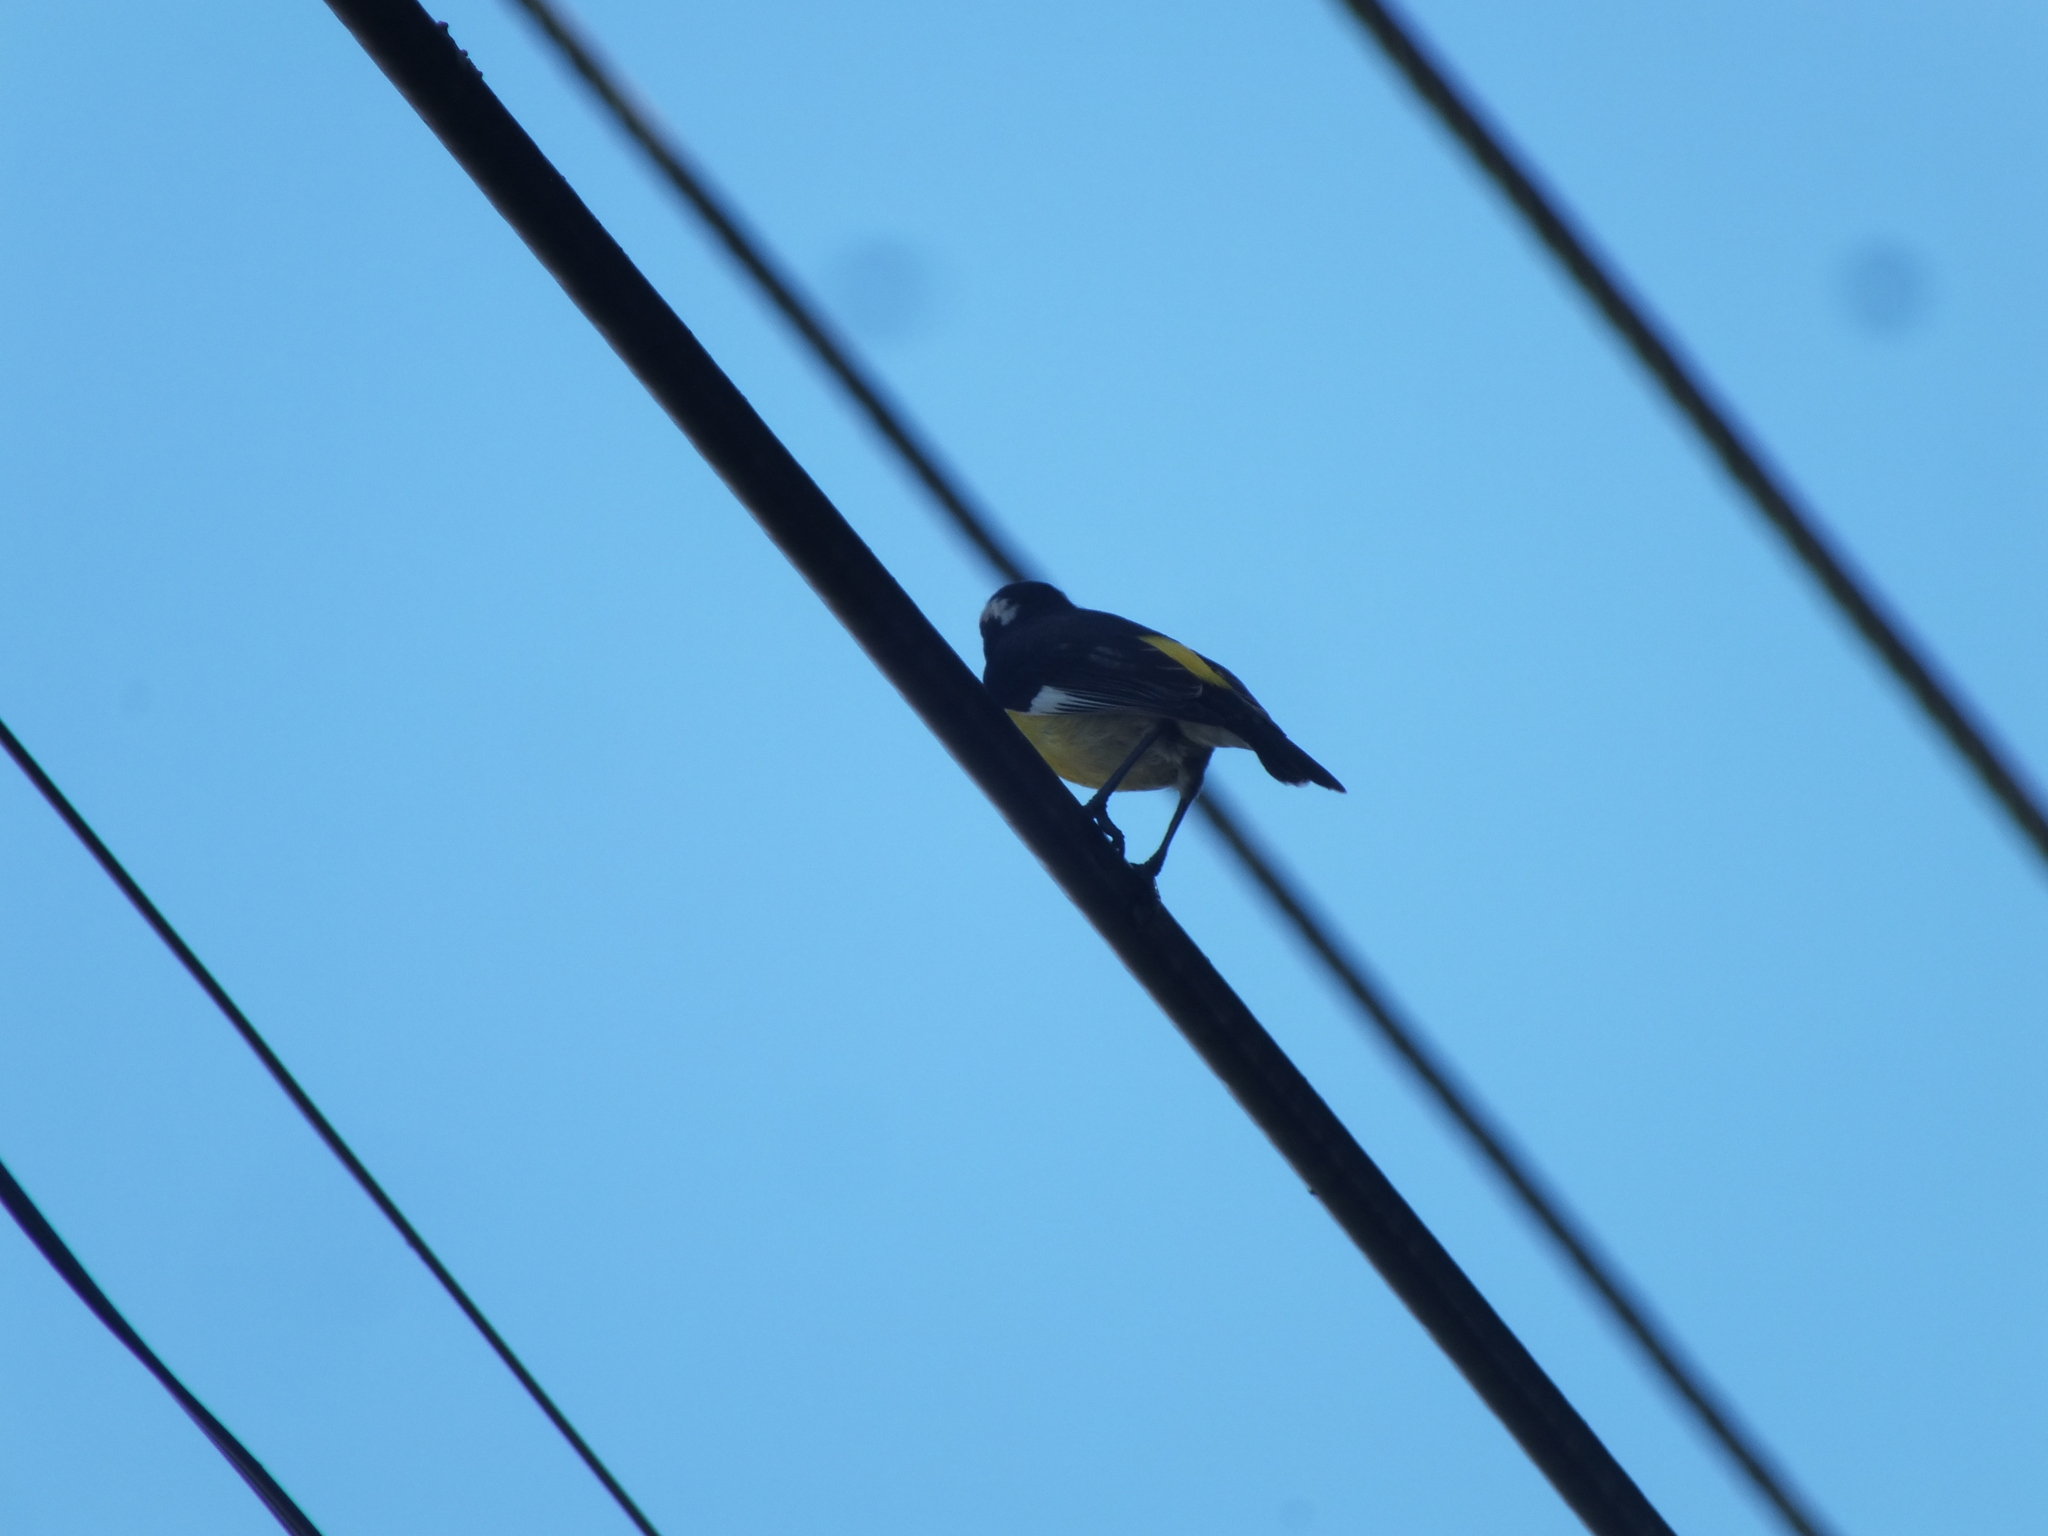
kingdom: Animalia
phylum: Chordata
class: Aves
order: Passeriformes
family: Thraupidae
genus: Coereba
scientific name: Coereba flaveola
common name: Bananaquit
